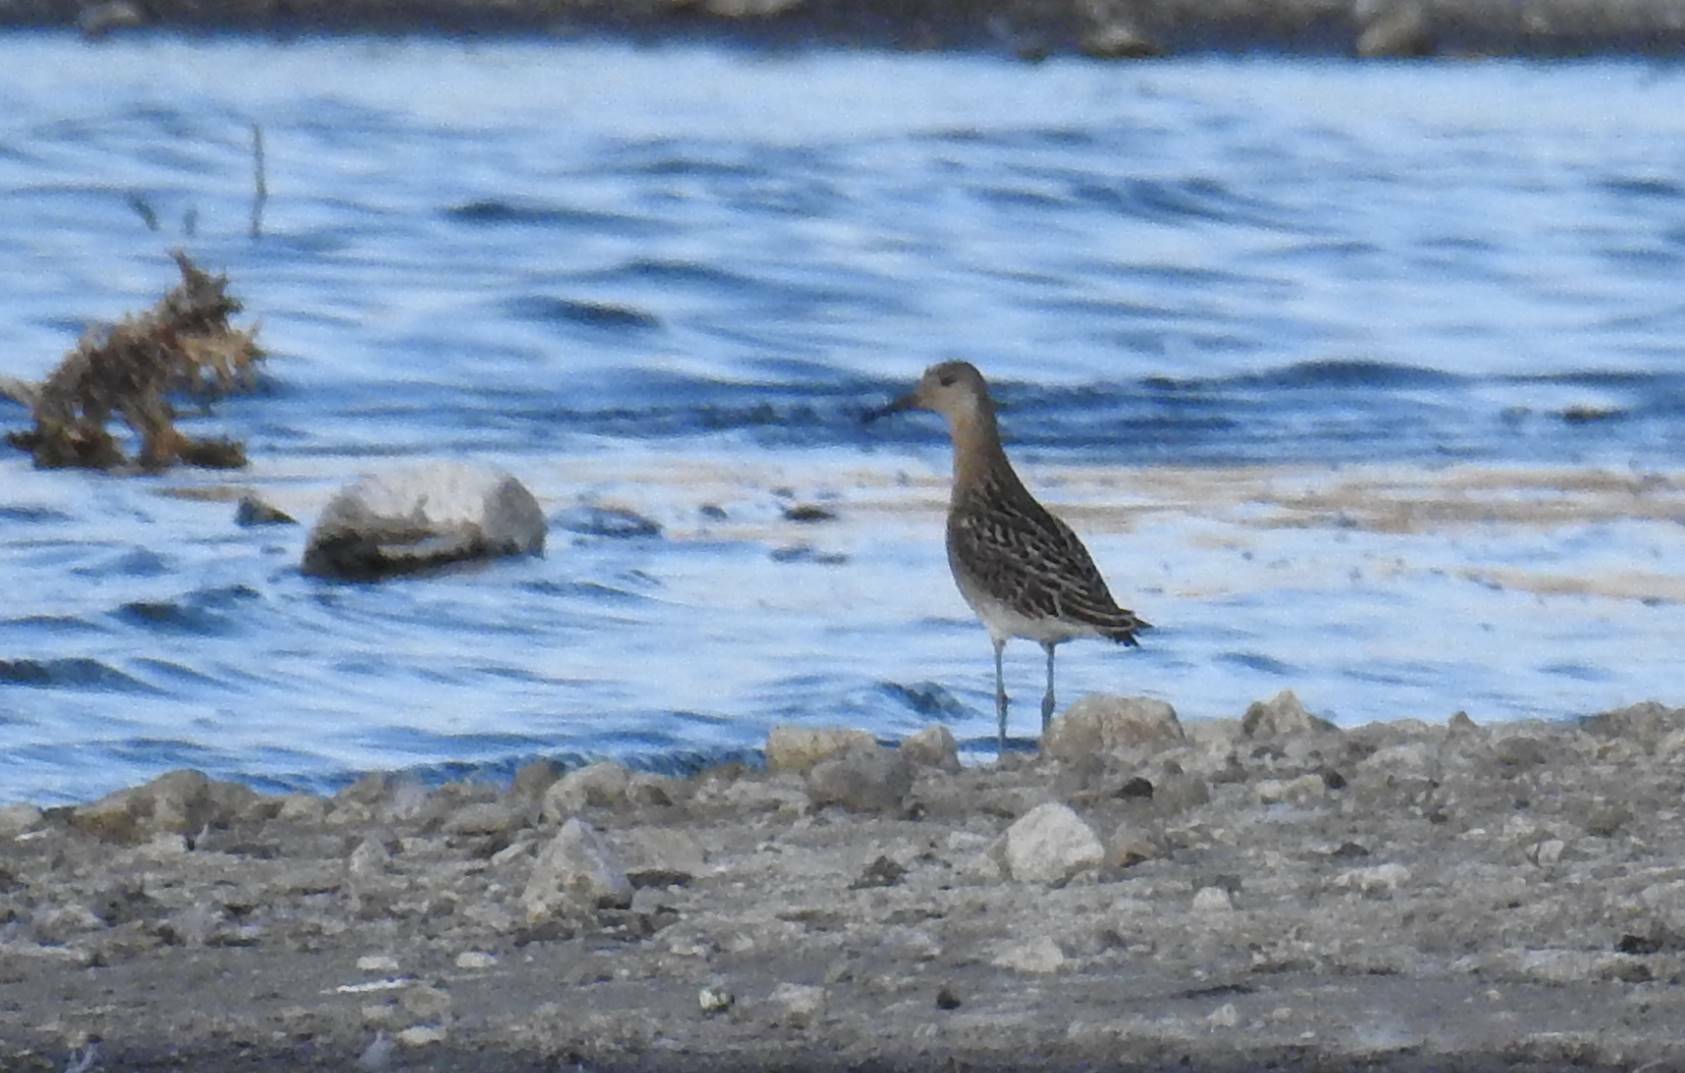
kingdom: Animalia
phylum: Chordata
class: Aves
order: Charadriiformes
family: Scolopacidae
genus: Calidris
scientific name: Calidris pugnax
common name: Ruff
